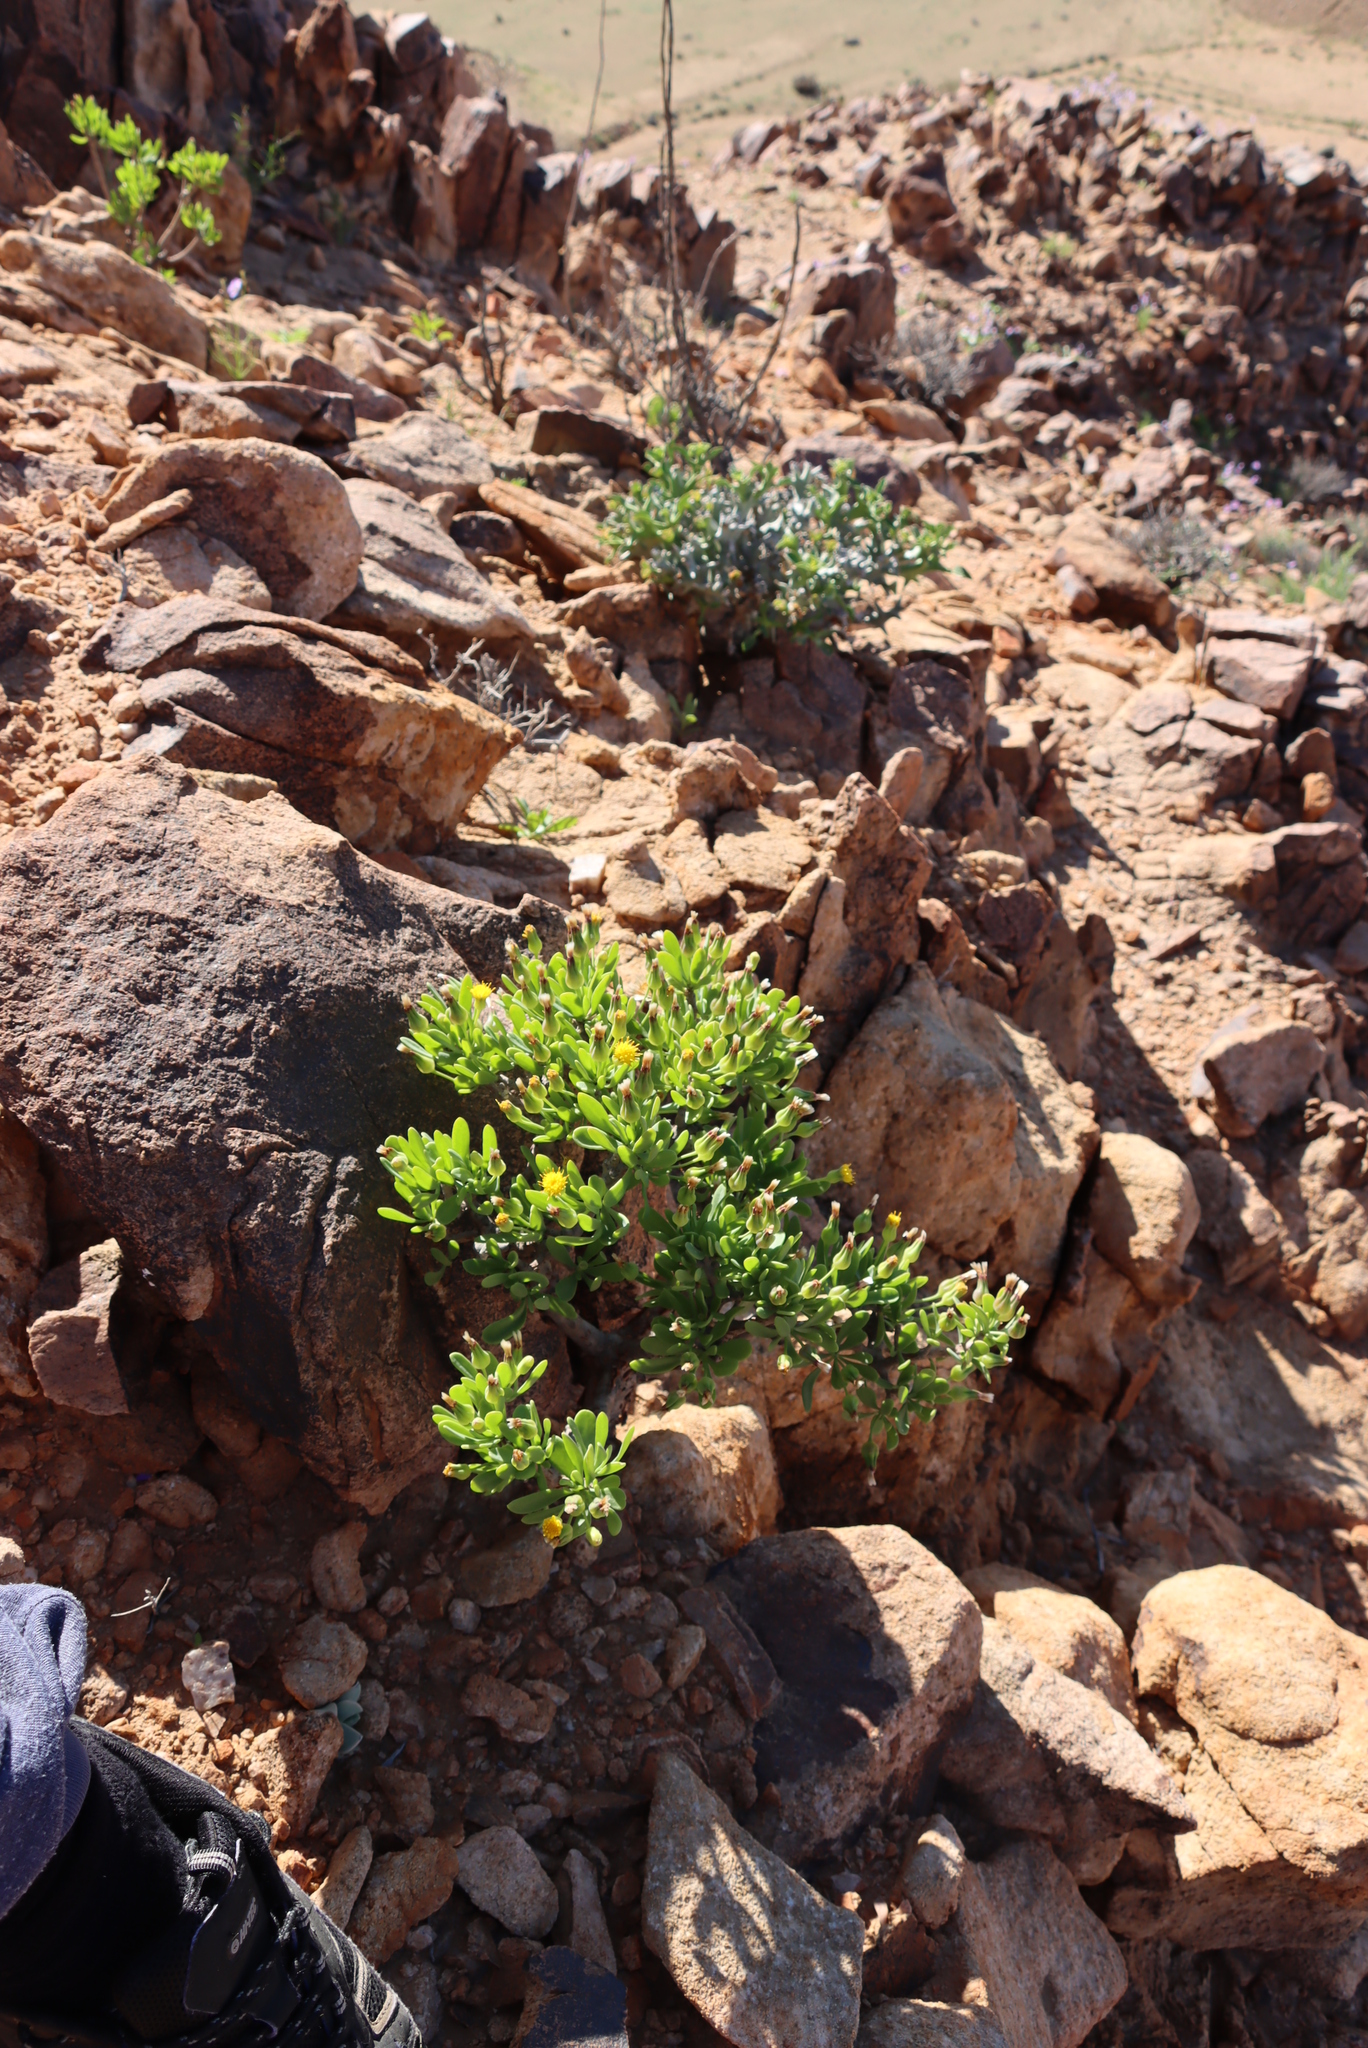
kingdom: Plantae
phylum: Tracheophyta
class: Magnoliopsida
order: Asterales
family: Asteraceae
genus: Othonna
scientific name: Othonna lasiocarpa
